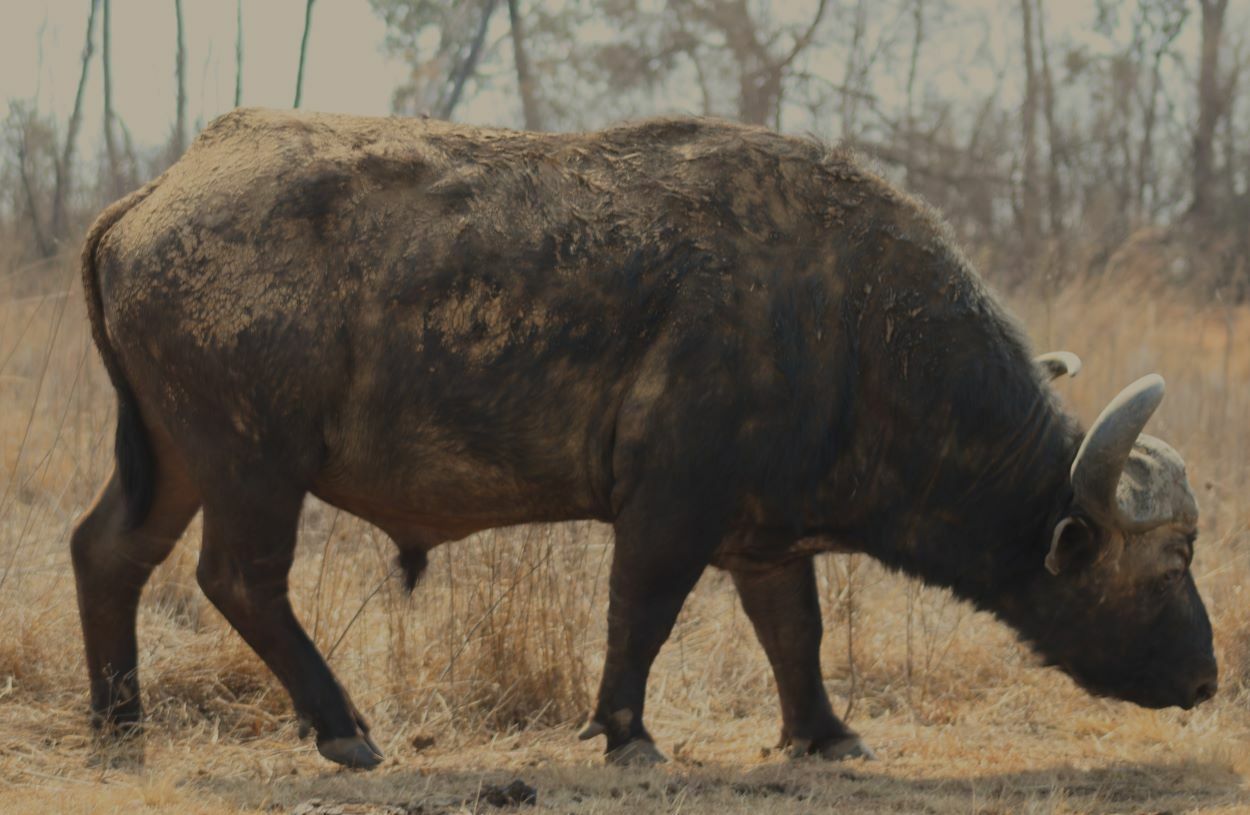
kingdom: Animalia
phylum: Chordata
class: Mammalia
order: Artiodactyla
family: Bovidae
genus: Syncerus
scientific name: Syncerus caffer
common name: African buffalo
